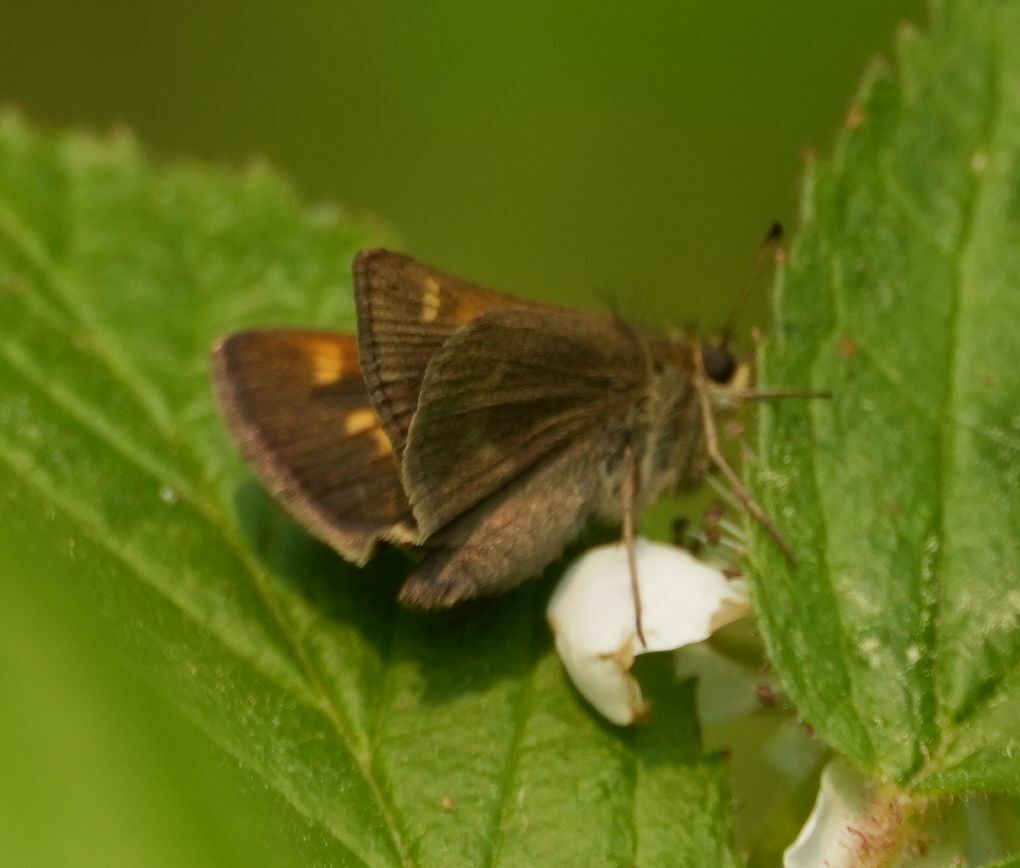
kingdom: Animalia
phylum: Arthropoda
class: Insecta
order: Lepidoptera
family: Hesperiidae
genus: Polites
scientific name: Polites themistocles
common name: Tawny-edged skipper
